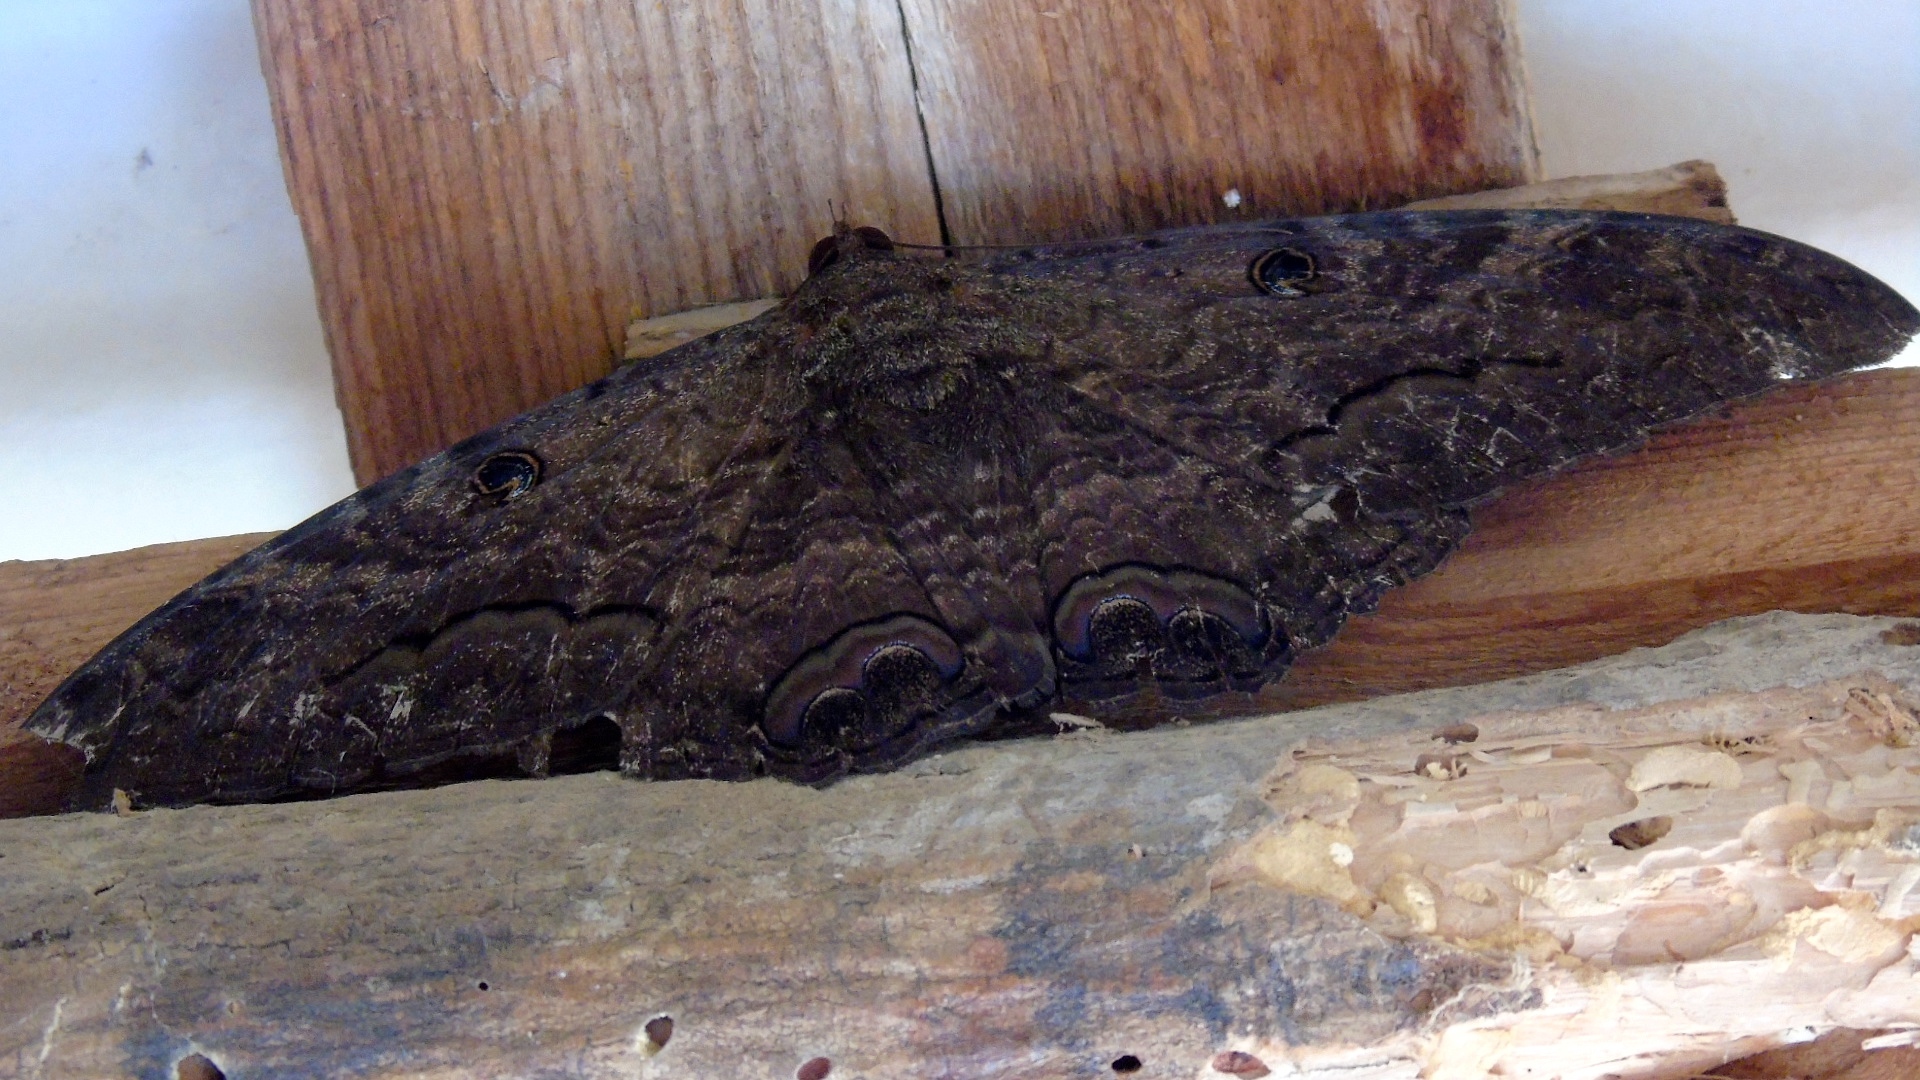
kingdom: Animalia
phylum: Arthropoda
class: Insecta
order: Lepidoptera
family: Erebidae
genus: Ascalapha
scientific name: Ascalapha odorata
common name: Black witch
